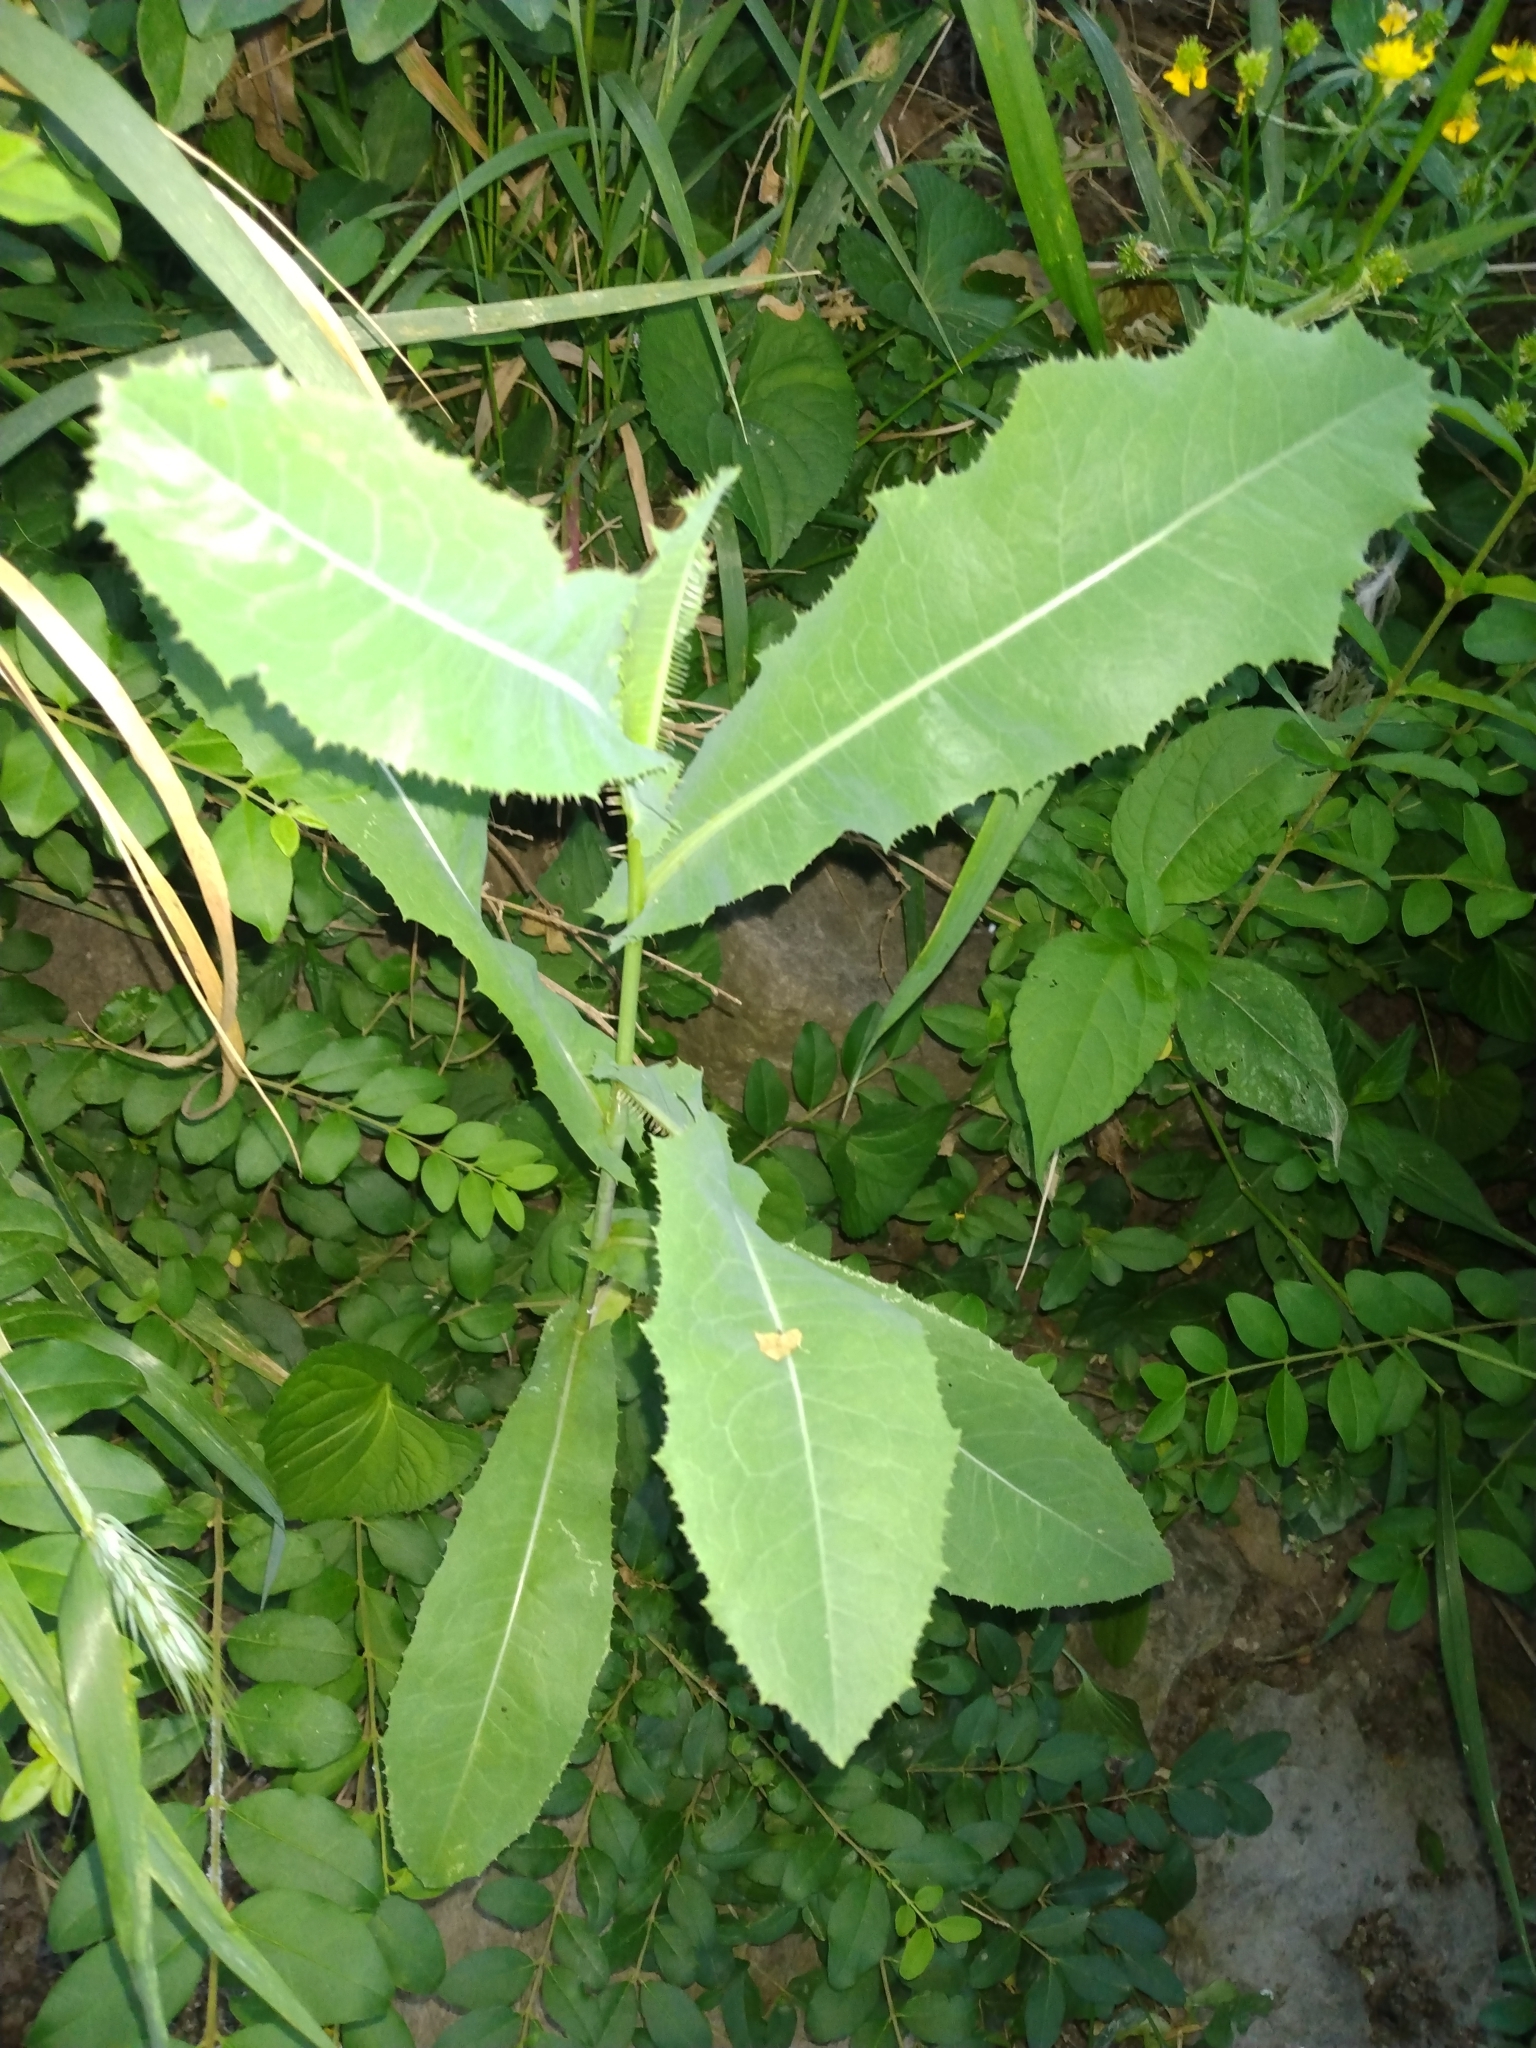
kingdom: Plantae
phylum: Tracheophyta
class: Magnoliopsida
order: Asterales
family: Asteraceae
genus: Lactuca
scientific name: Lactuca serriola
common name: Prickly lettuce
